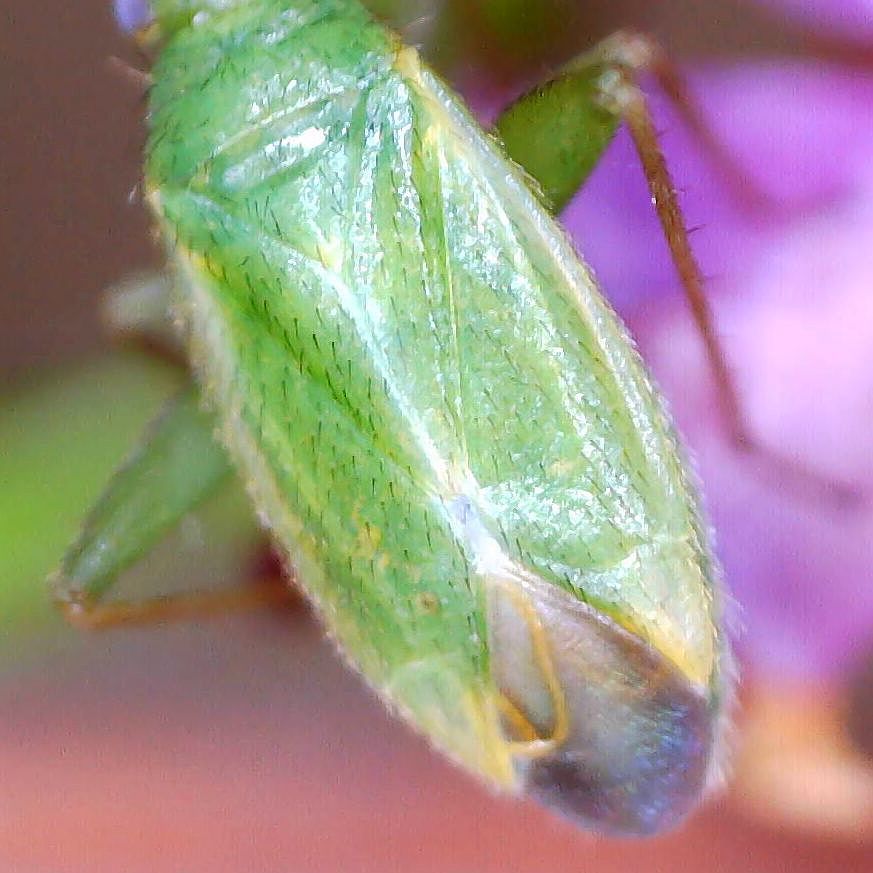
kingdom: Animalia
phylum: Arthropoda
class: Insecta
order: Hemiptera
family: Miridae
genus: Orthotylus
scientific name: Orthotylus ericetorum
